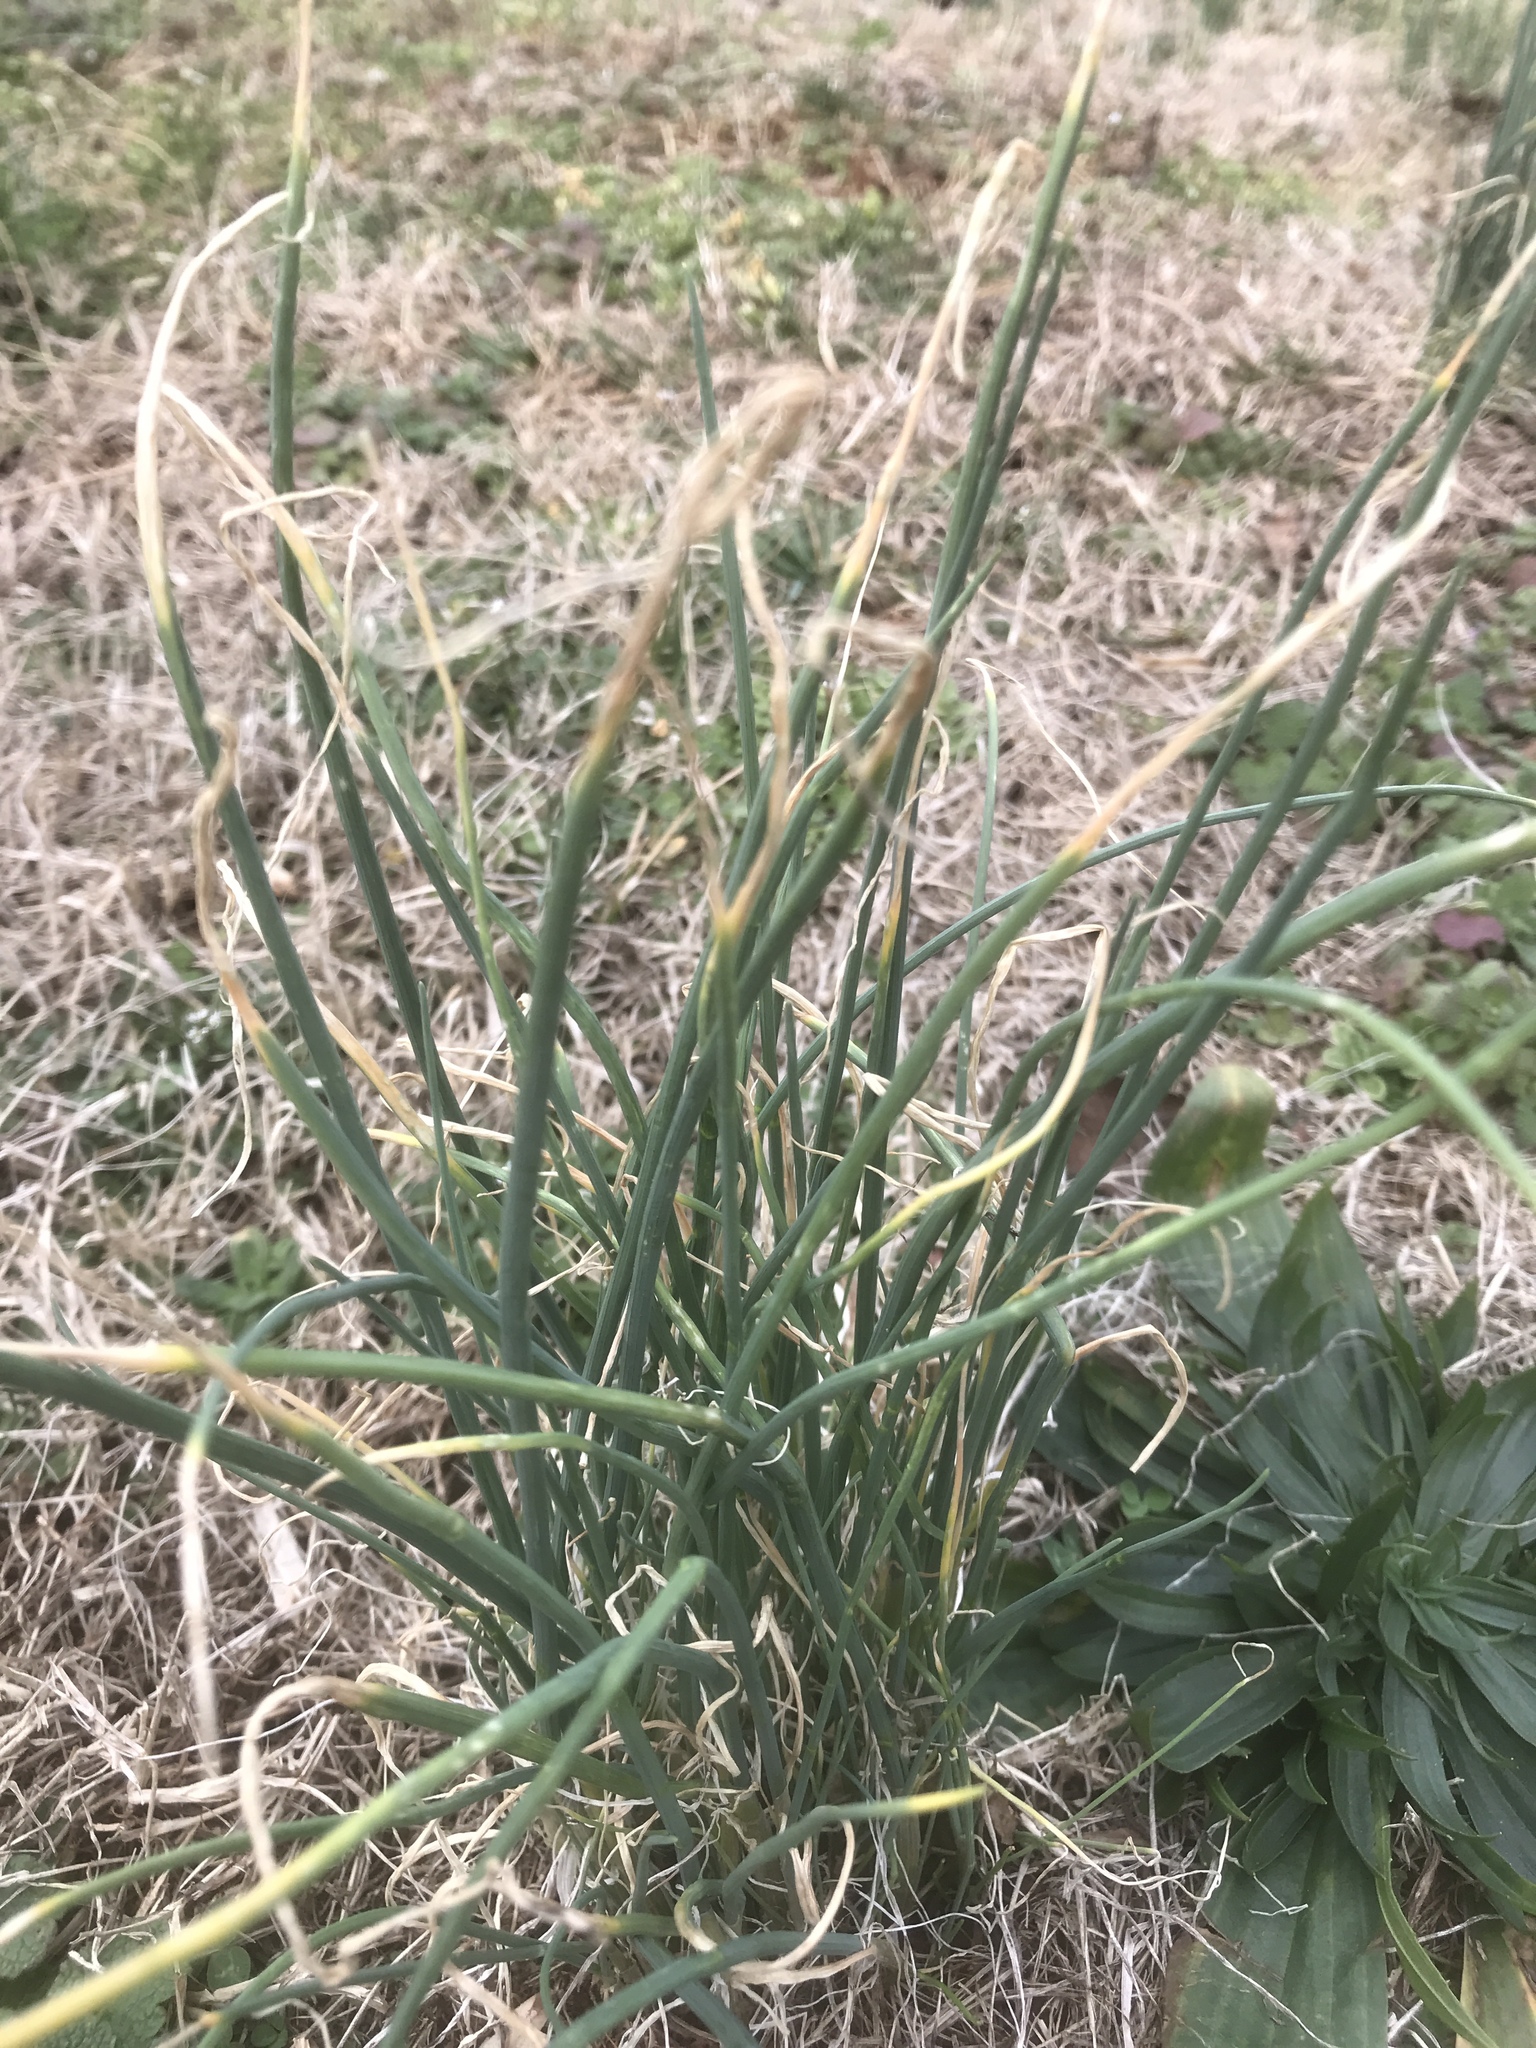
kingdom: Plantae
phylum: Tracheophyta
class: Liliopsida
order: Asparagales
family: Amaryllidaceae
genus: Allium
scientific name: Allium vineale
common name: Crow garlic
